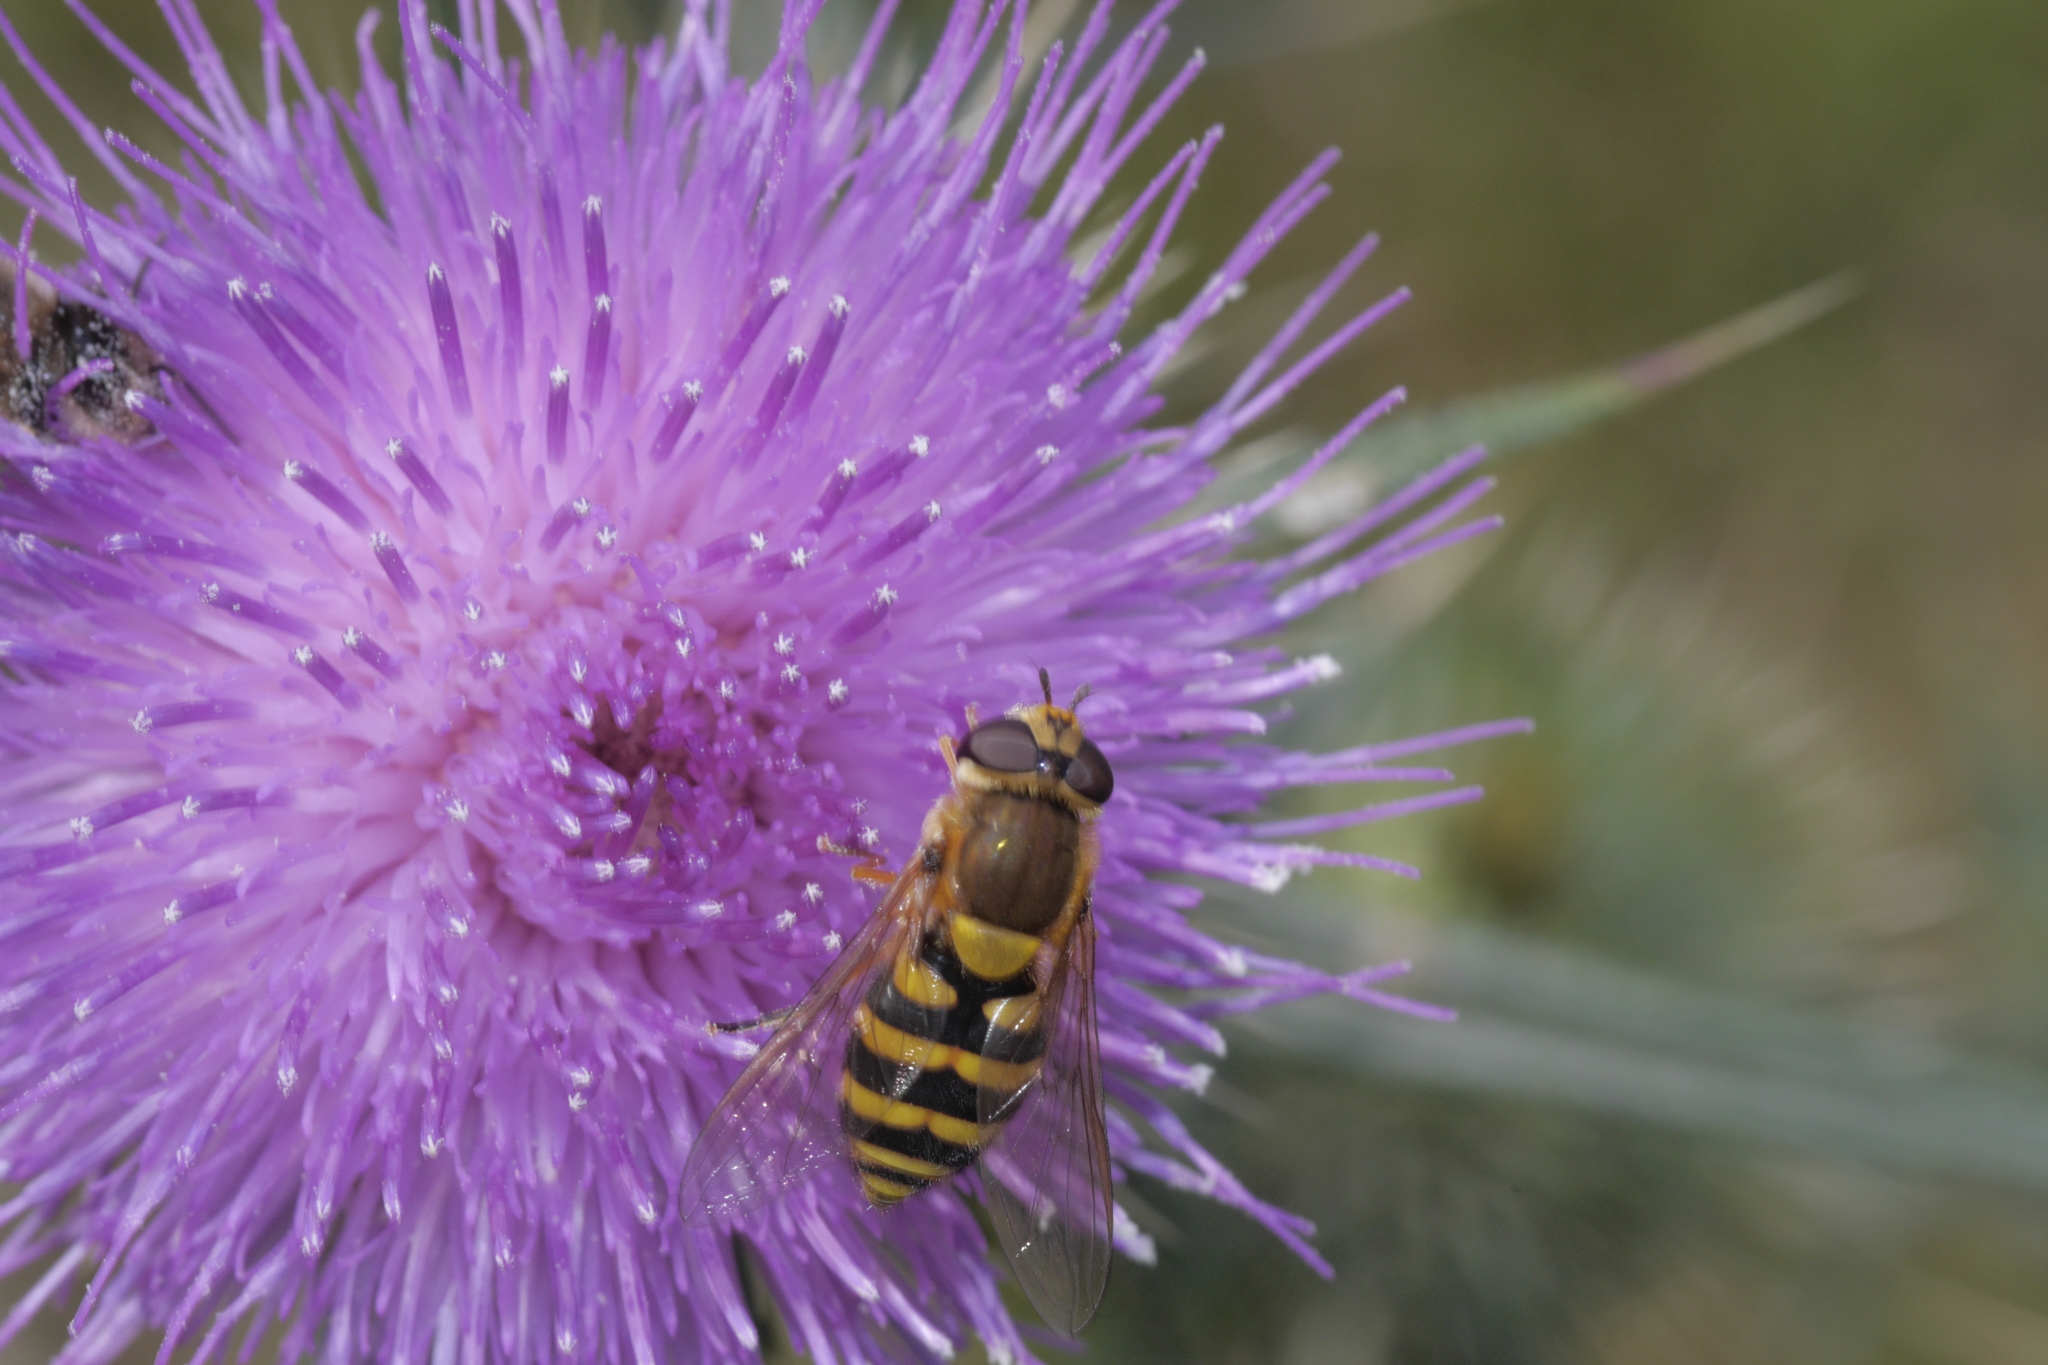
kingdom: Animalia
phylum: Arthropoda
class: Insecta
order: Diptera
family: Syrphidae
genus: Syrphus
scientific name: Syrphus
